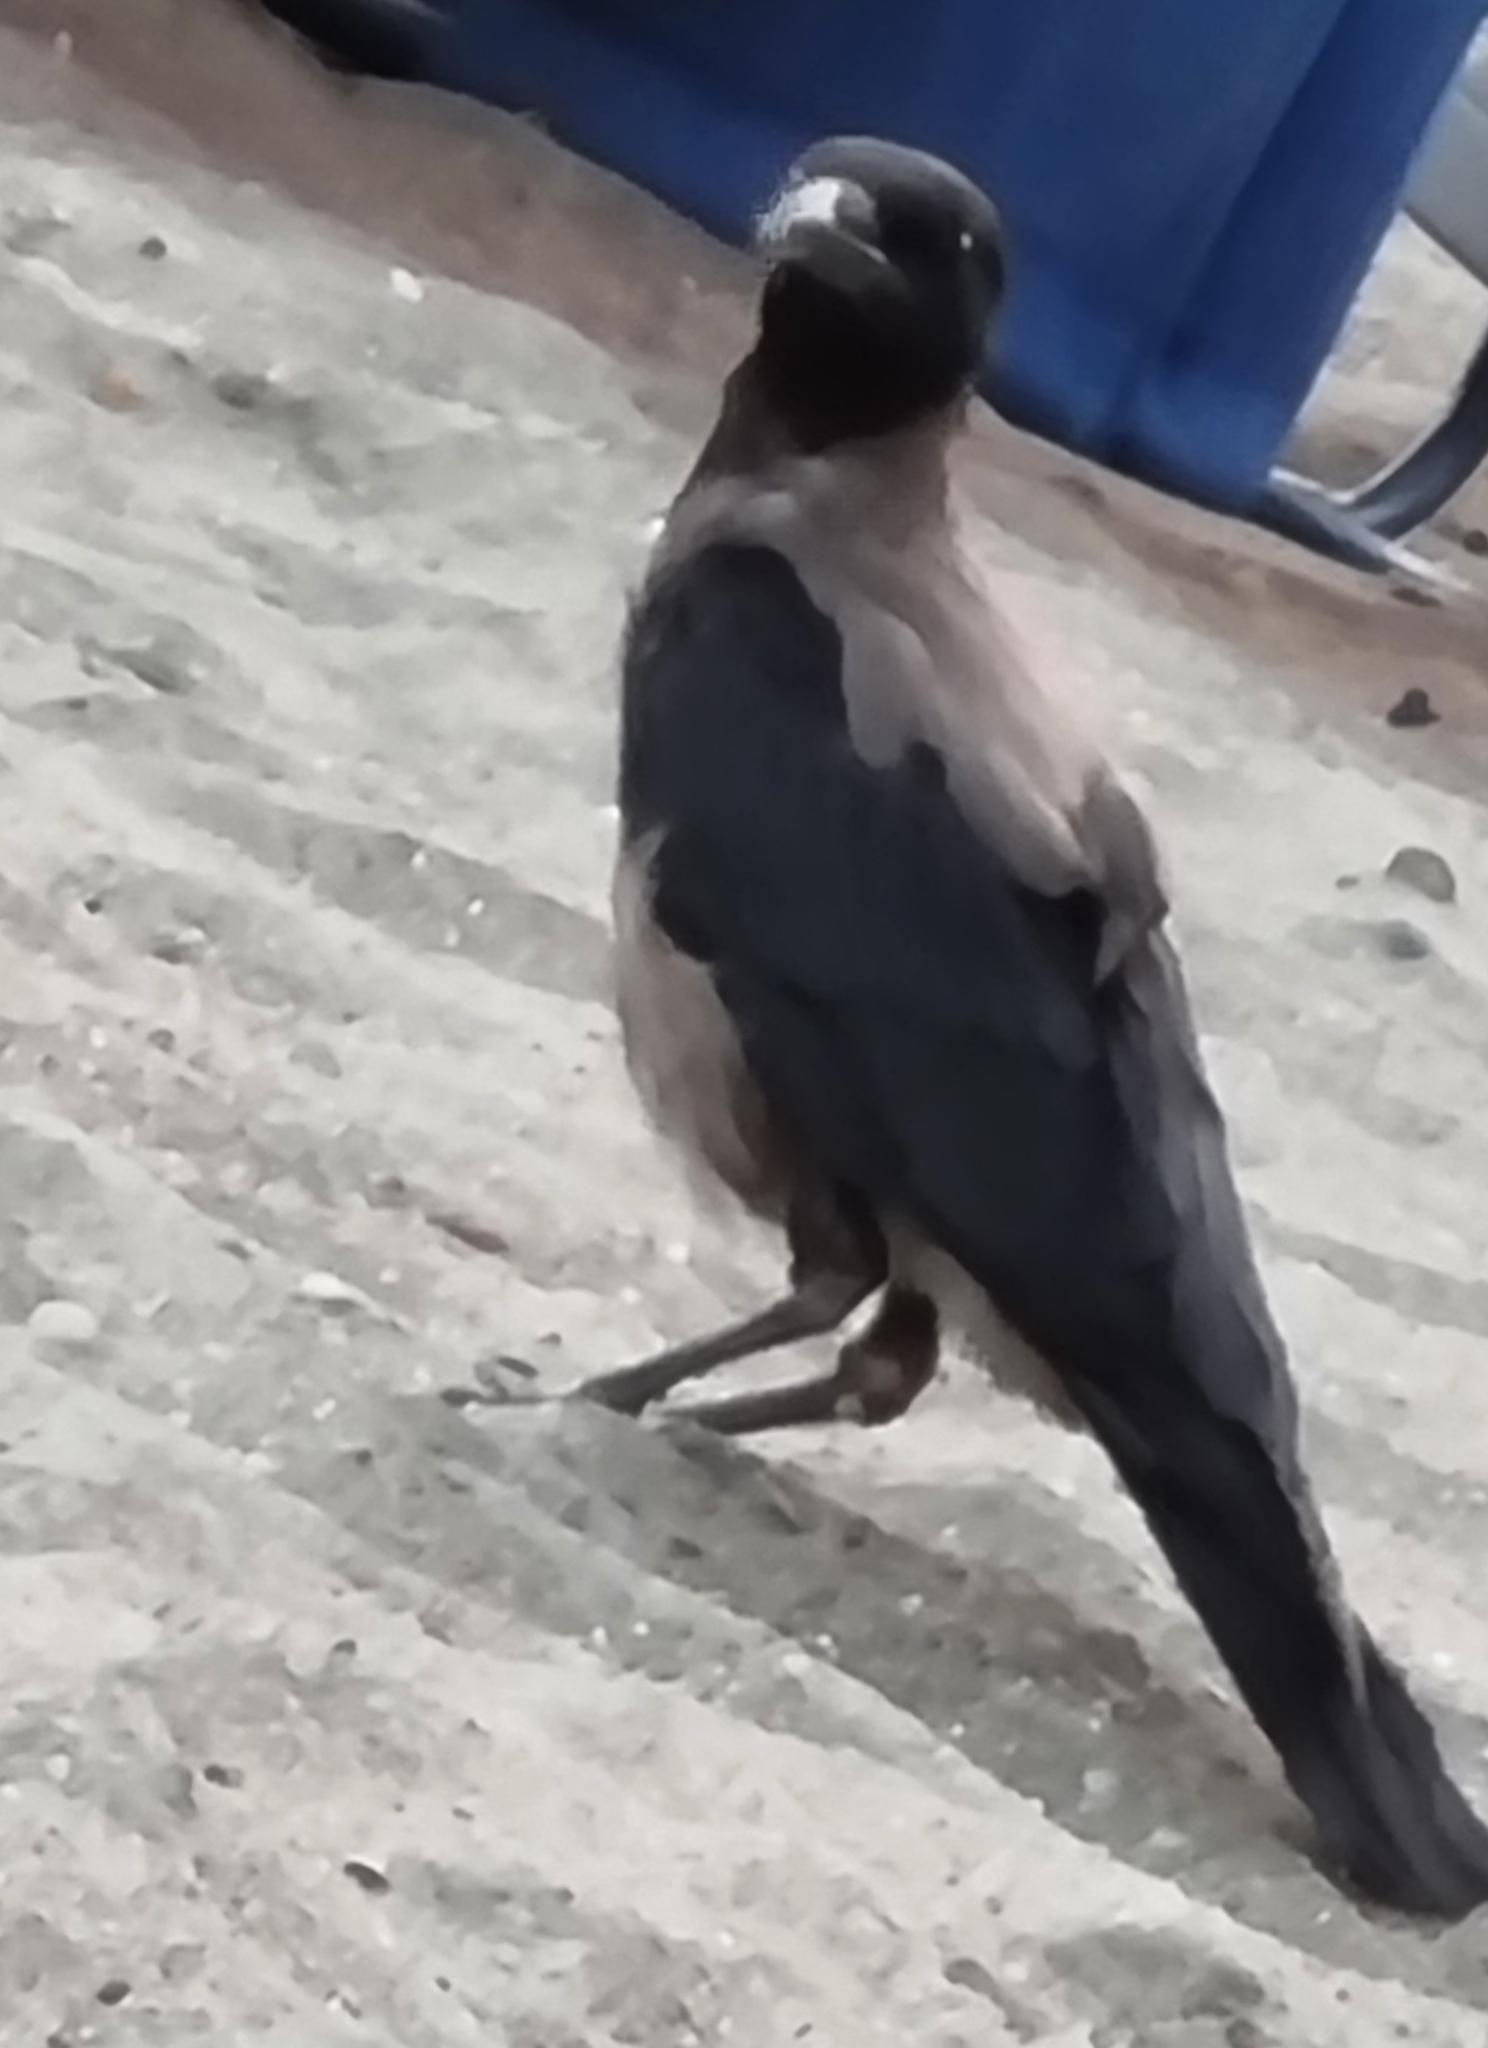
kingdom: Animalia
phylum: Chordata
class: Aves
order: Passeriformes
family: Corvidae
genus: Corvus
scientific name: Corvus cornix
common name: Hooded crow
